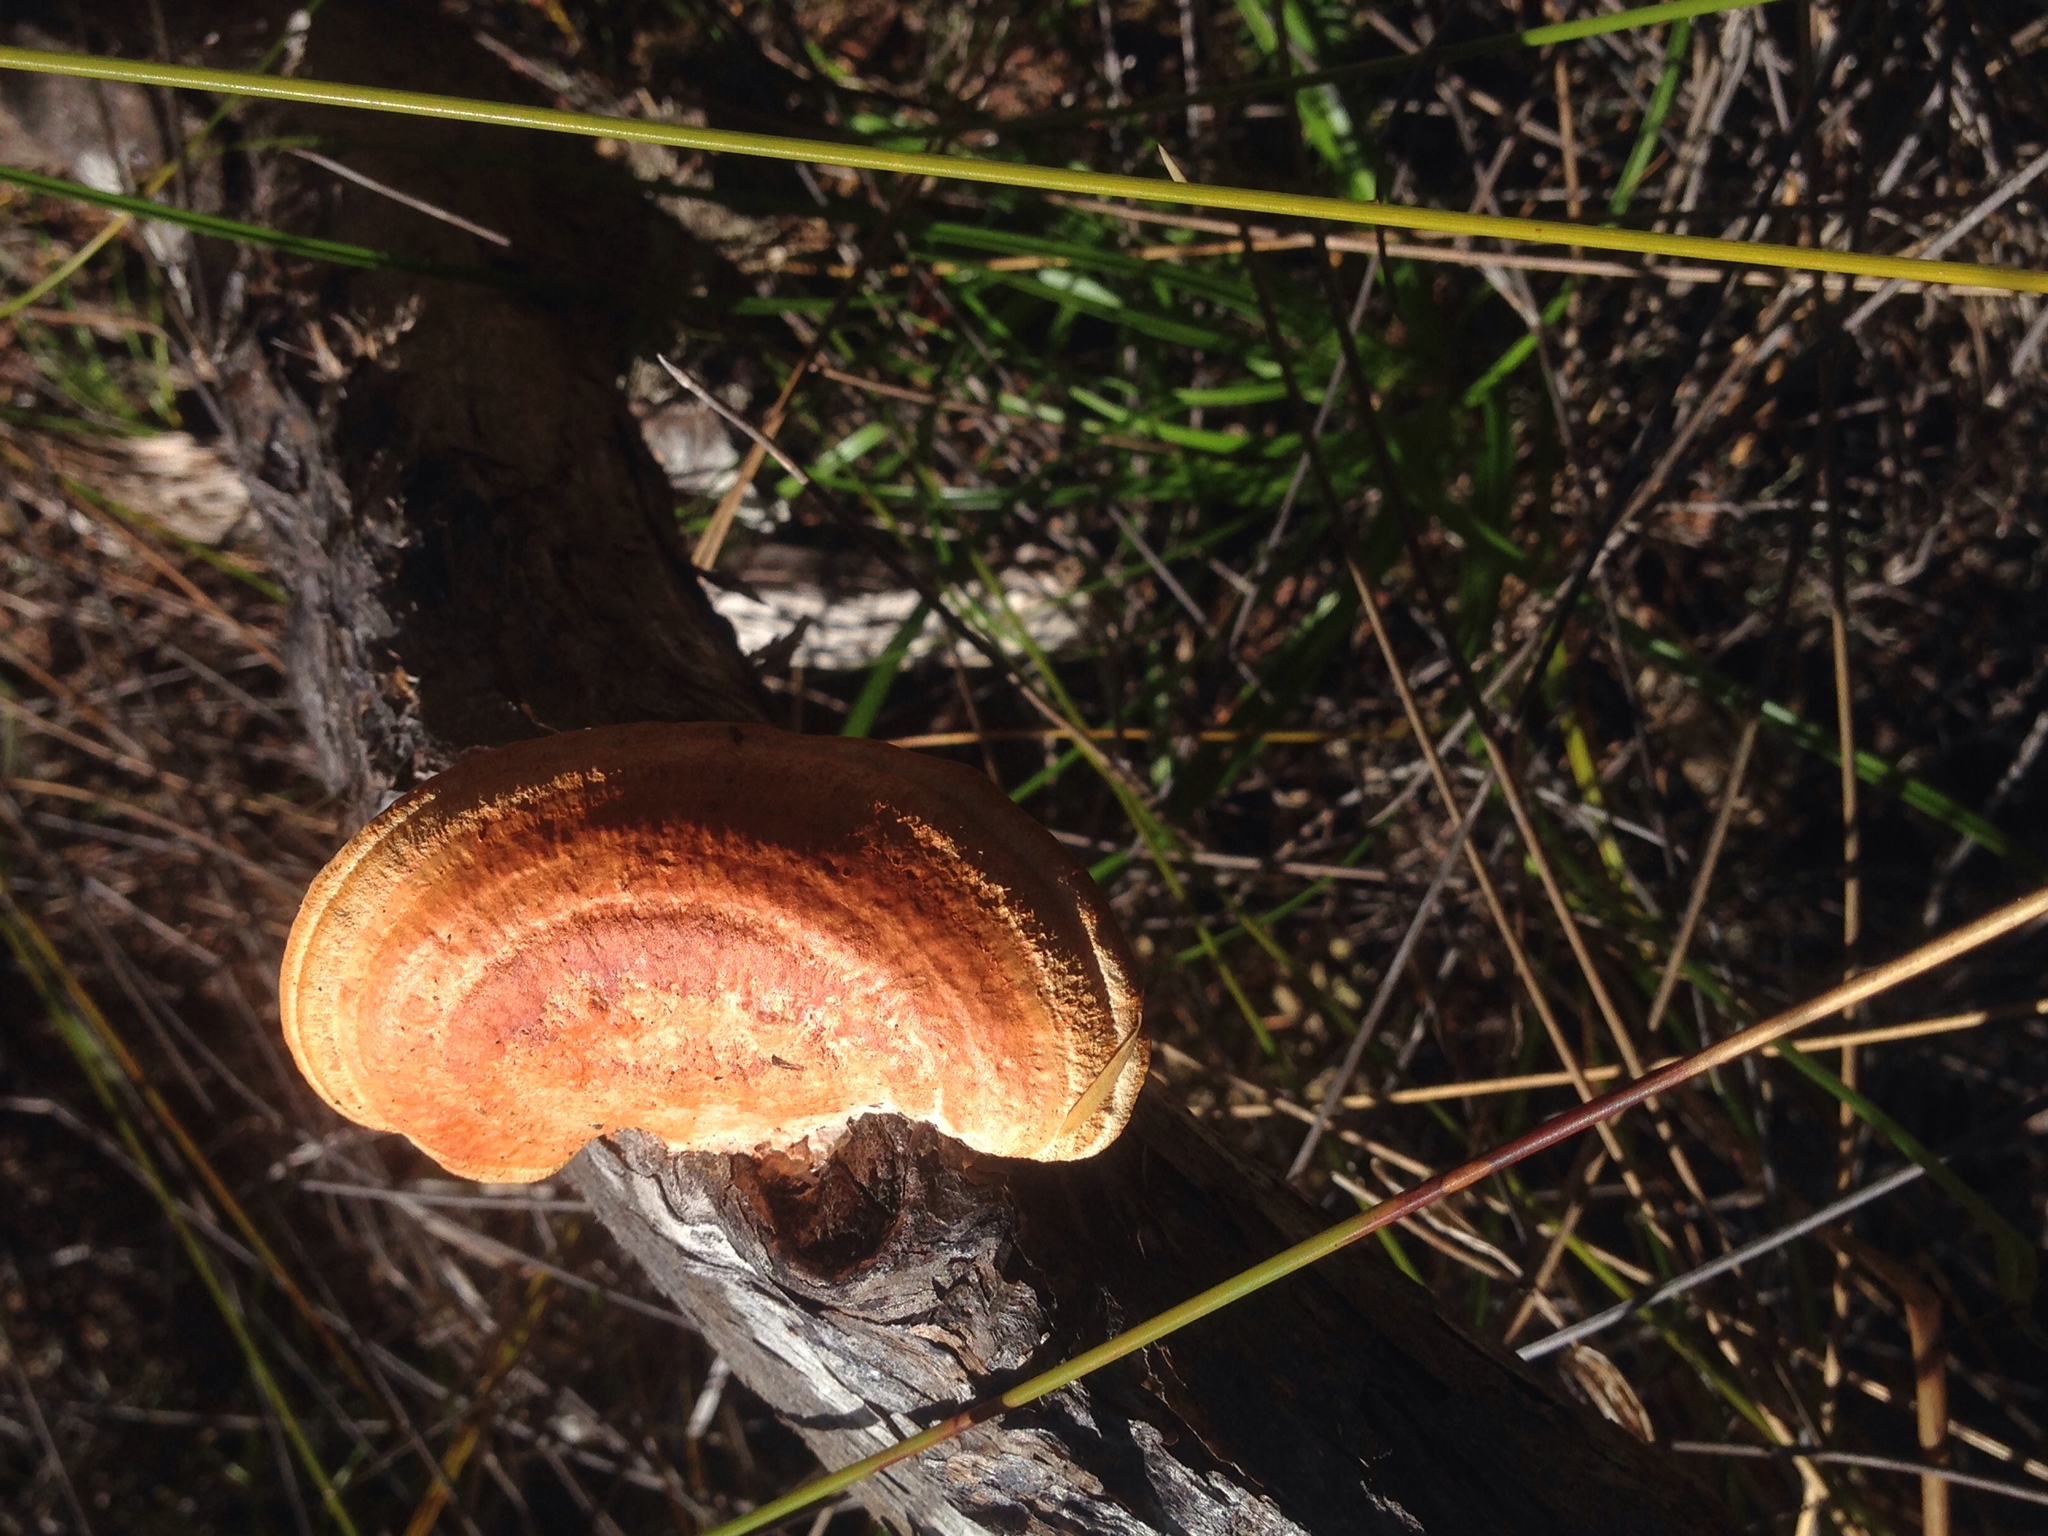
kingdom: Fungi
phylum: Basidiomycota
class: Agaricomycetes
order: Polyporales
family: Polyporaceae
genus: Trametes
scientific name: Trametes coccinea
